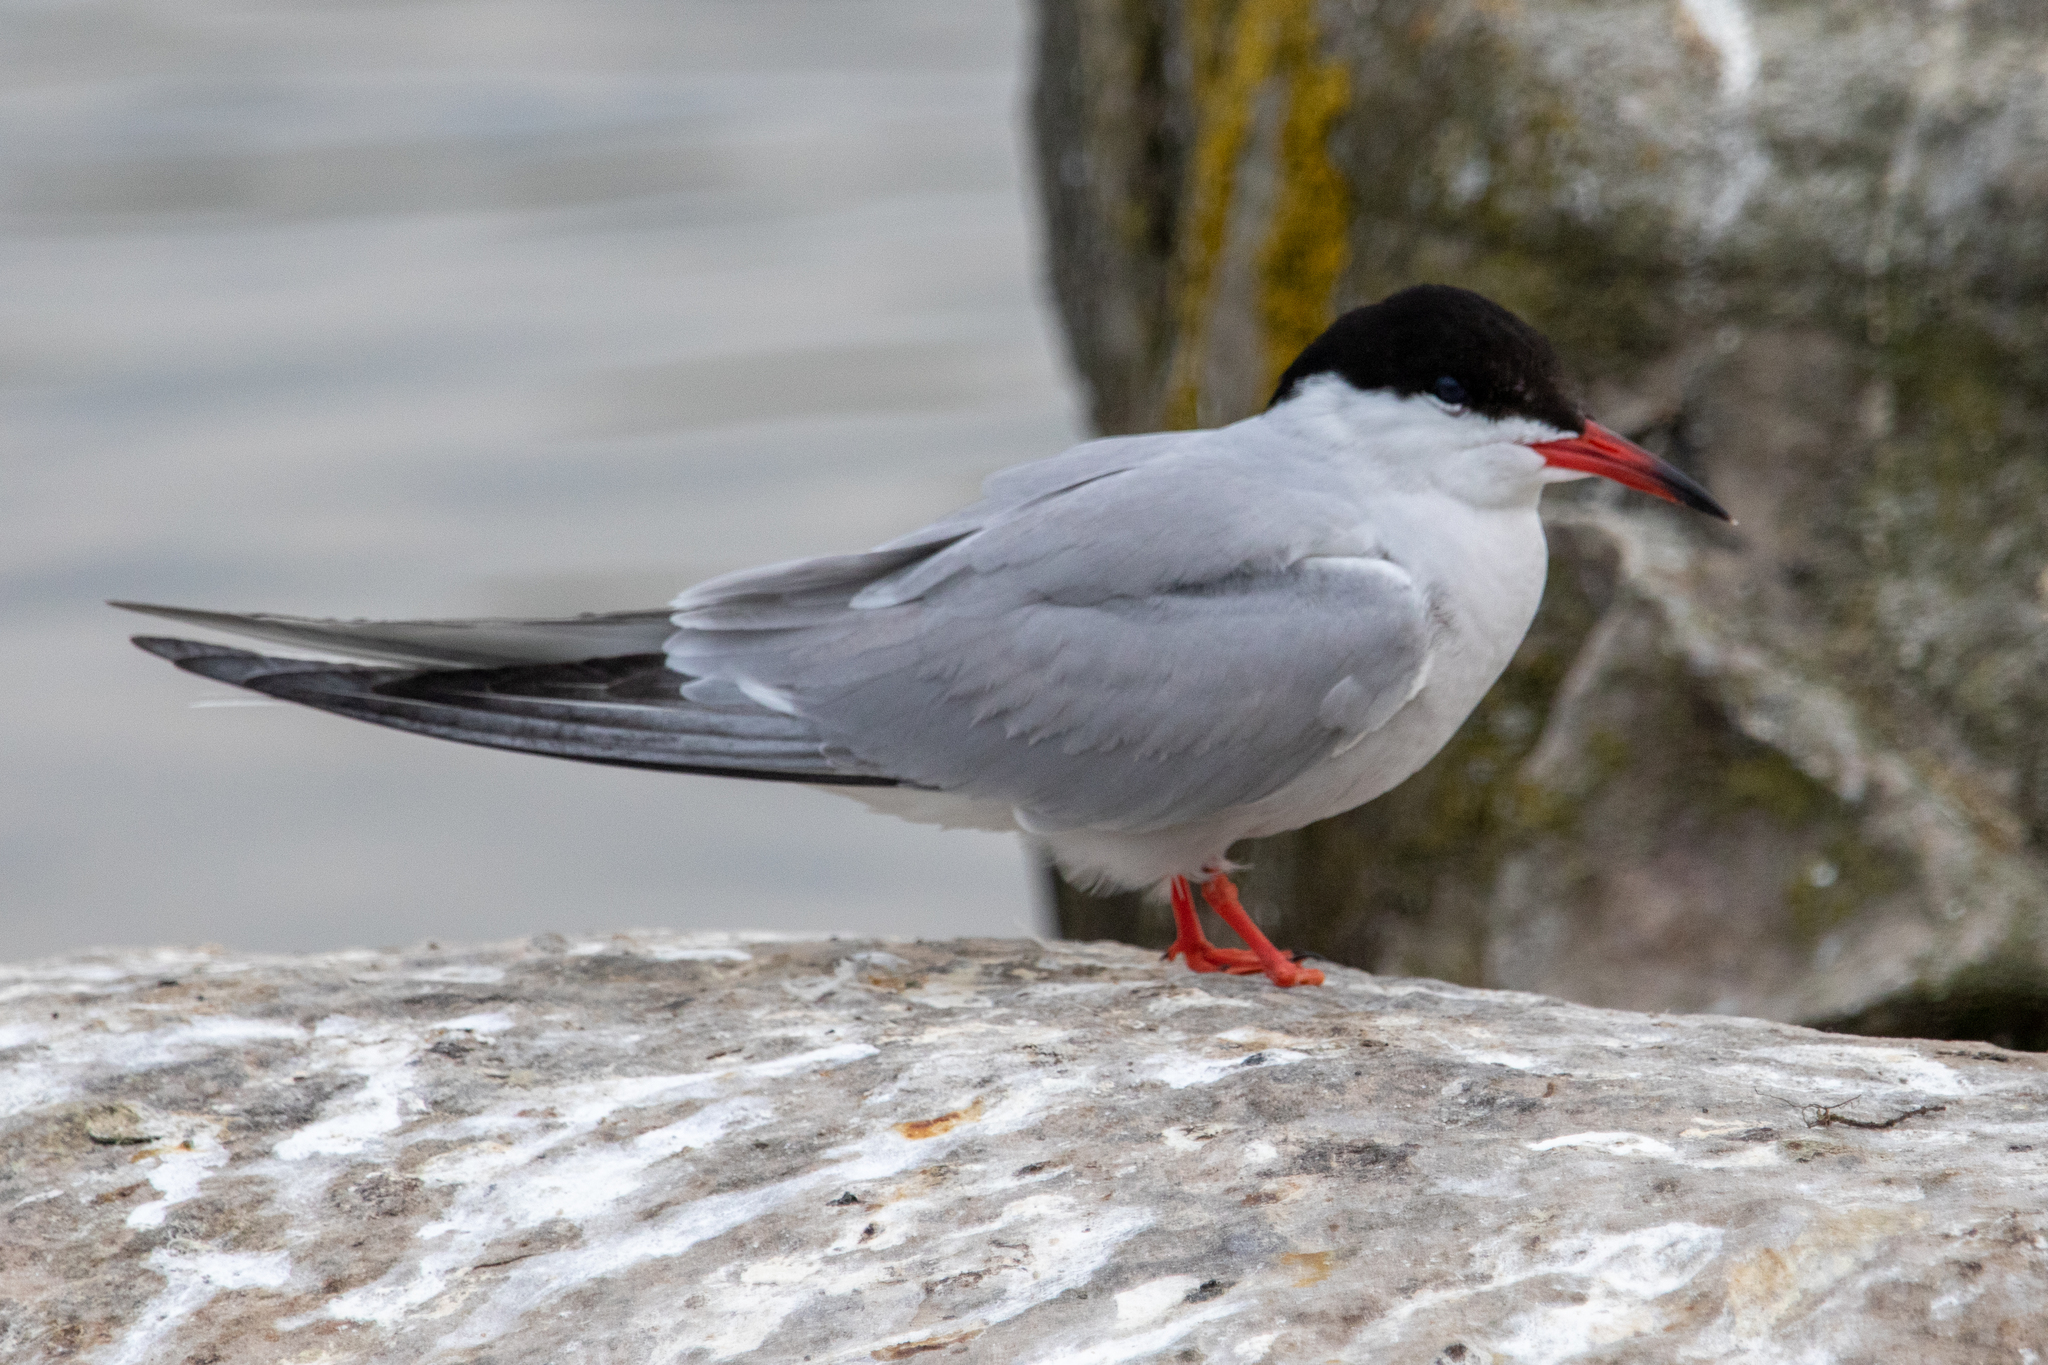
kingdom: Animalia
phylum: Chordata
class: Aves
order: Charadriiformes
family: Laridae
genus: Sterna
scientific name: Sterna hirundo
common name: Common tern
